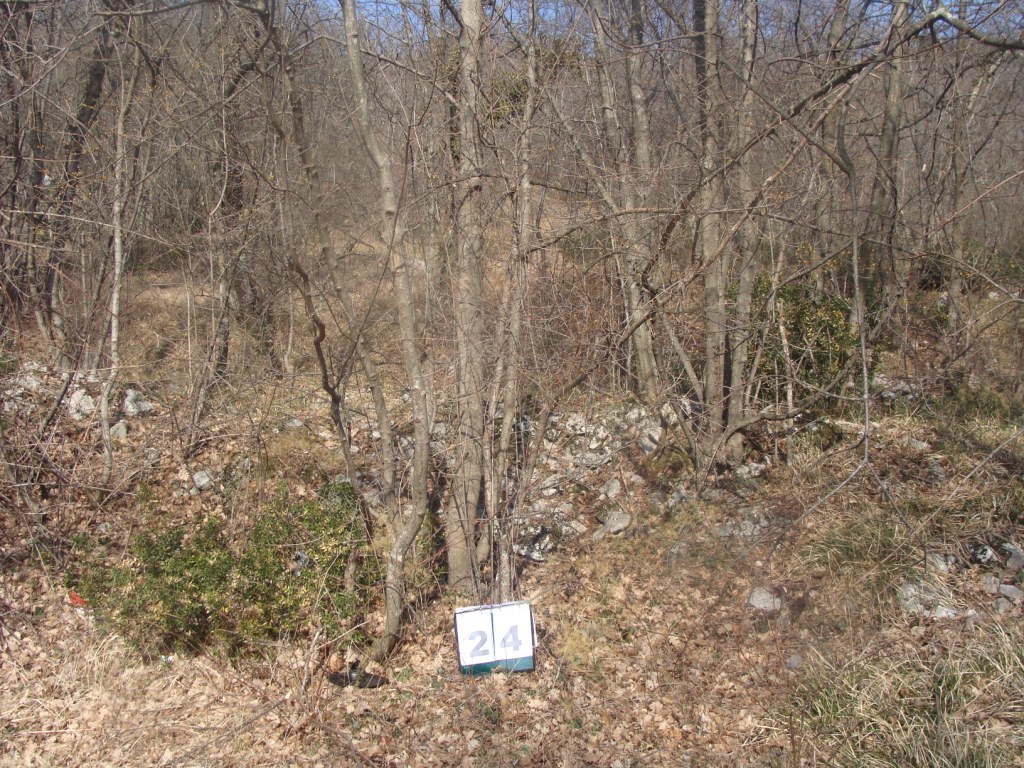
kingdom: Plantae
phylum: Tracheophyta
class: Magnoliopsida
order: Cornales
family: Cornaceae
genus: Cornus
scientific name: Cornus mas
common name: Cornelian-cherry
